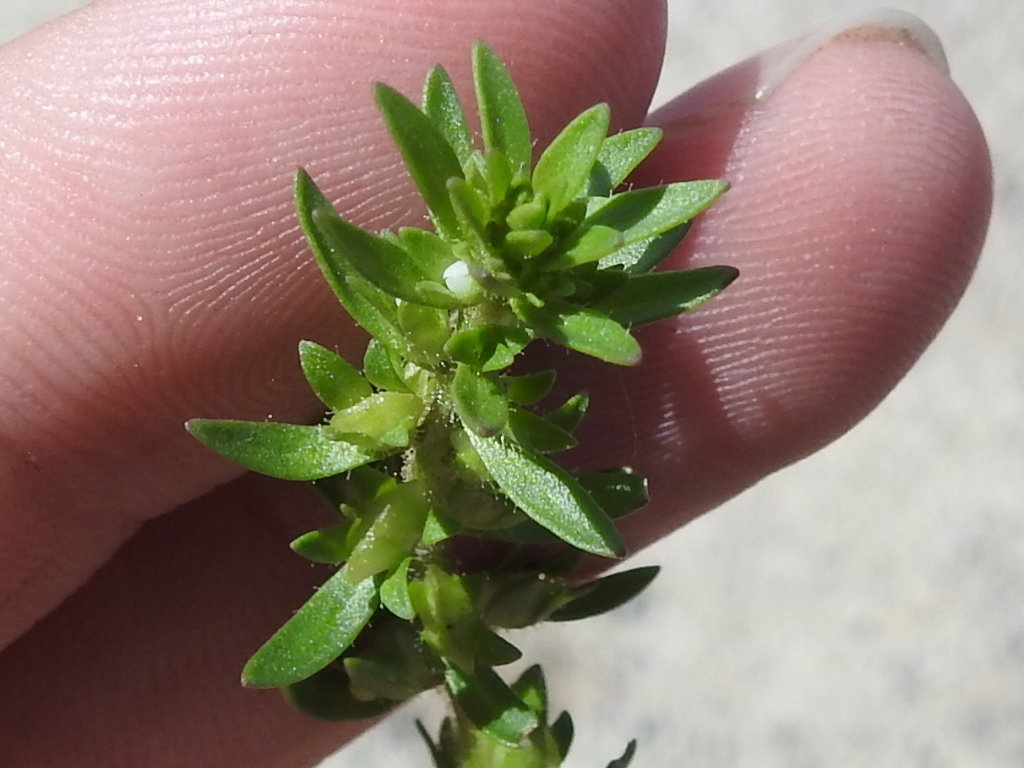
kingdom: Plantae
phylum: Tracheophyta
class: Magnoliopsida
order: Lamiales
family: Plantaginaceae
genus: Veronica
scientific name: Veronica peregrina
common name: Neckweed
